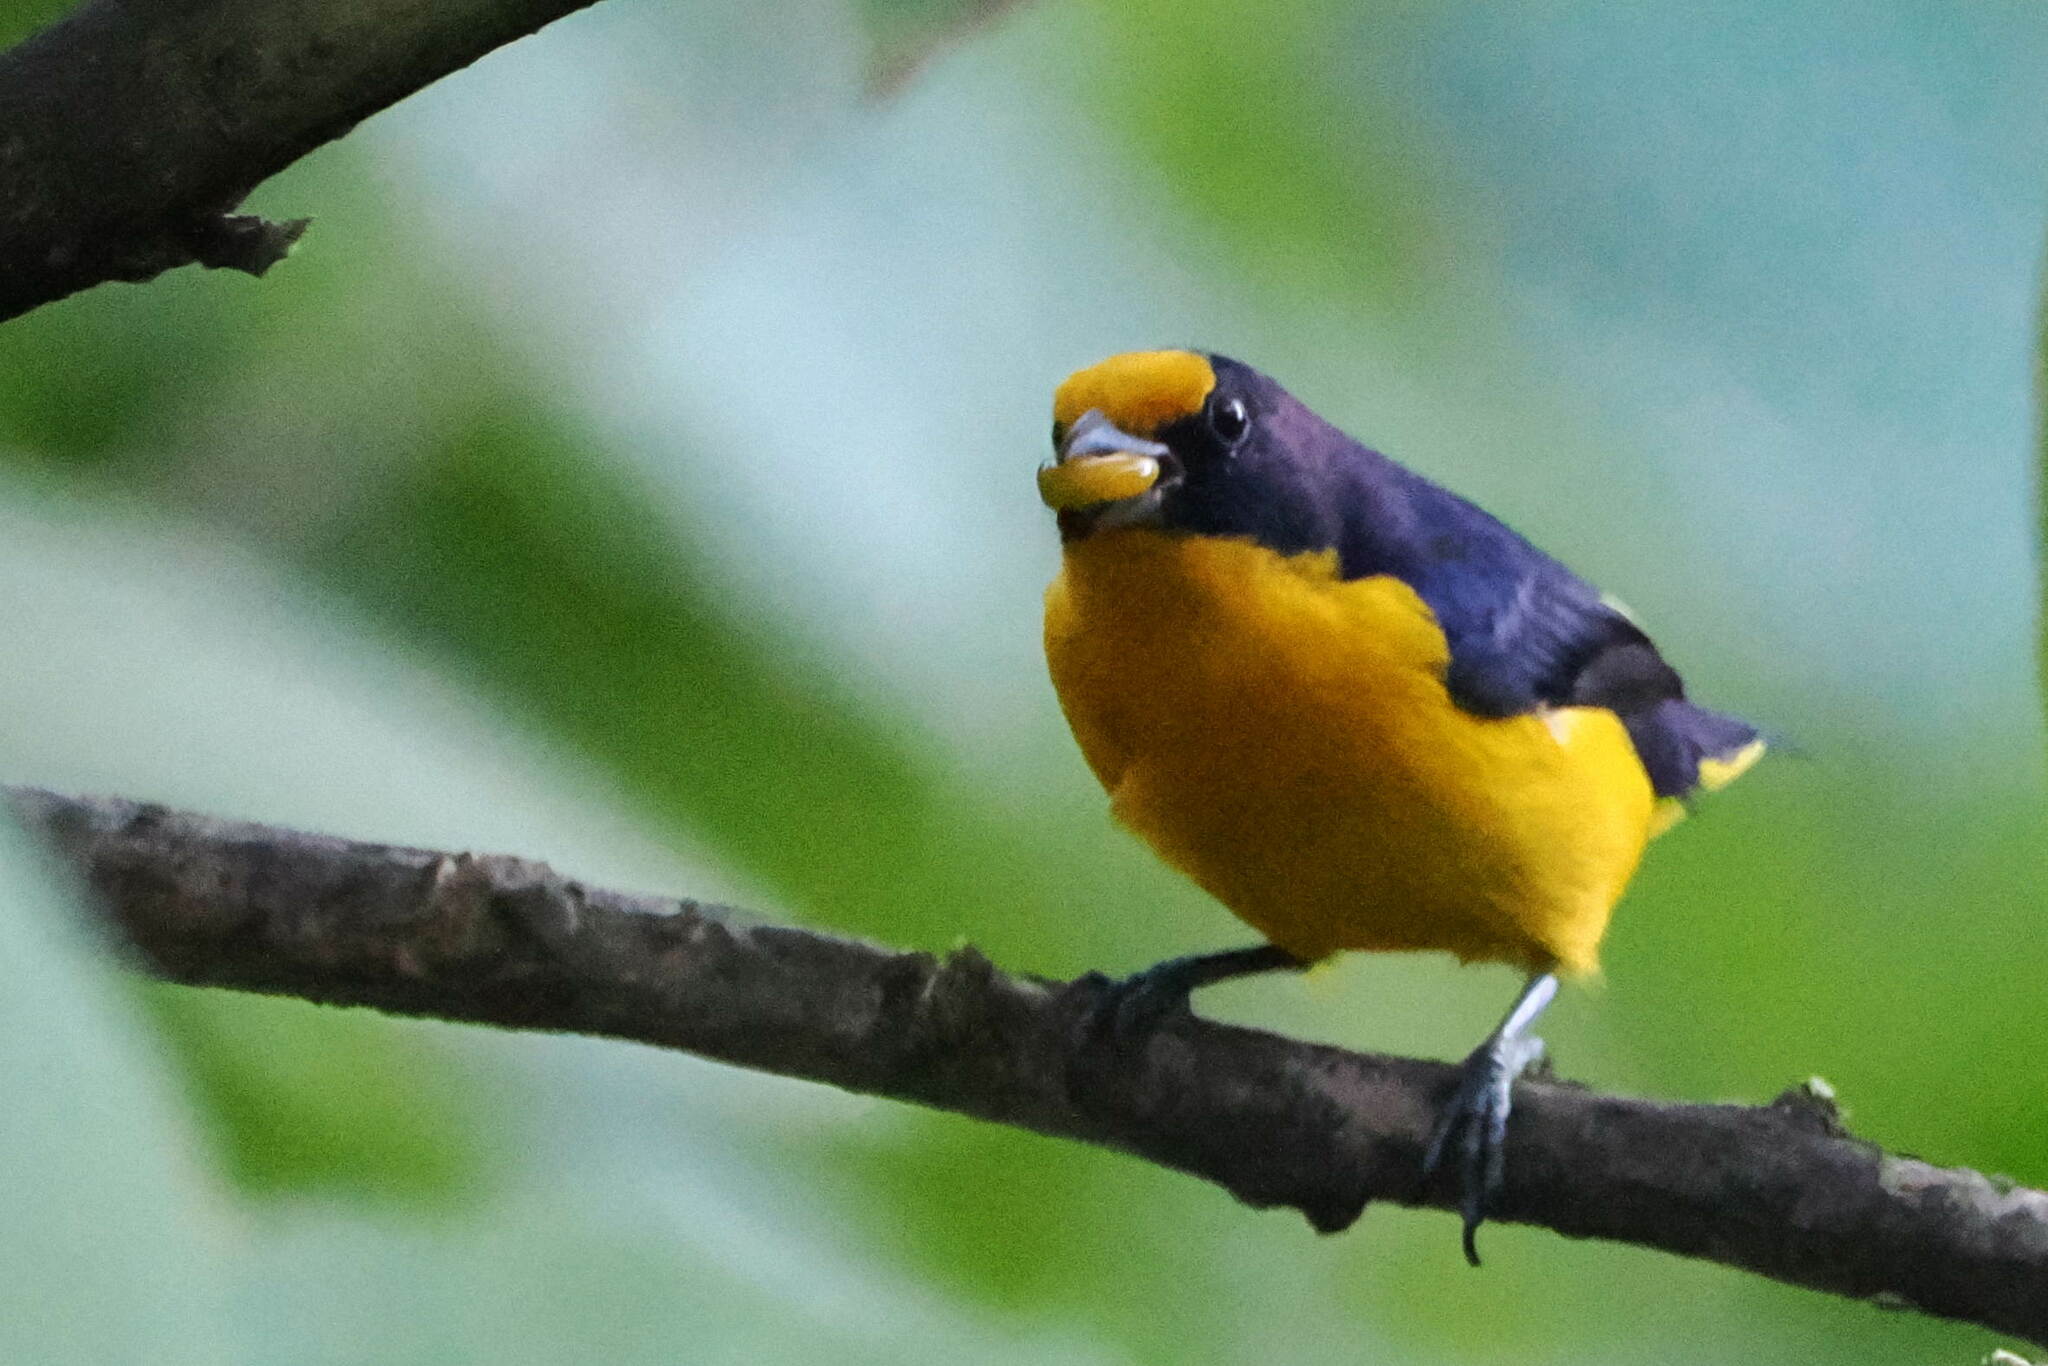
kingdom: Animalia
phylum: Chordata
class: Aves
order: Passeriformes
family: Fringillidae
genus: Euphonia
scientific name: Euphonia violacea
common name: Violaceous euphonia
